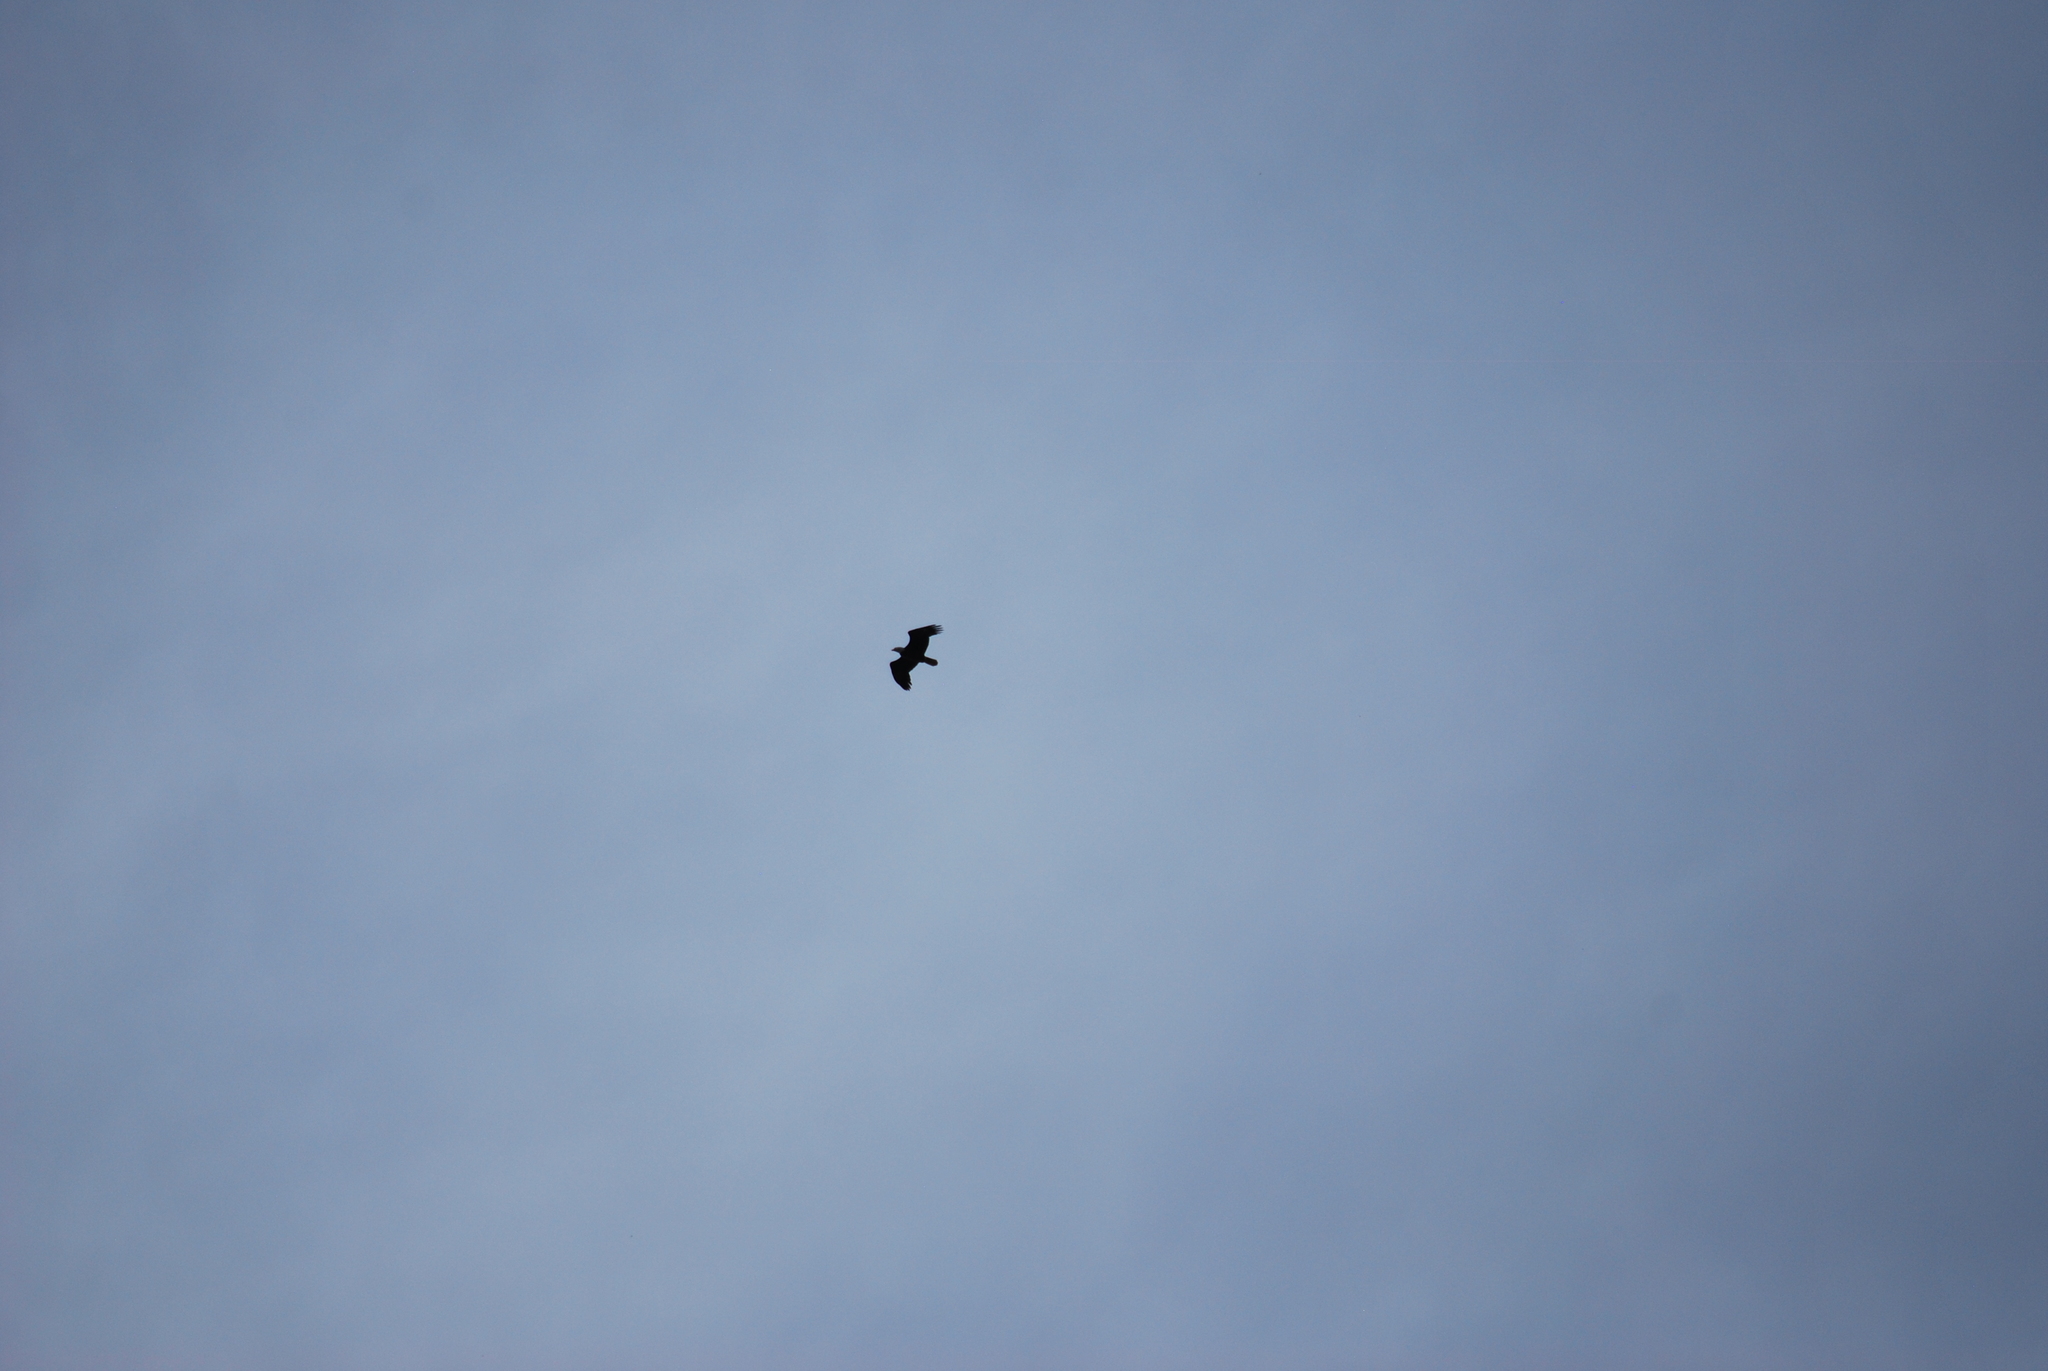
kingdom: Animalia
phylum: Chordata
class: Aves
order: Accipitriformes
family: Accipitridae
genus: Haliaeetus
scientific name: Haliaeetus leucocephalus
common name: Bald eagle
